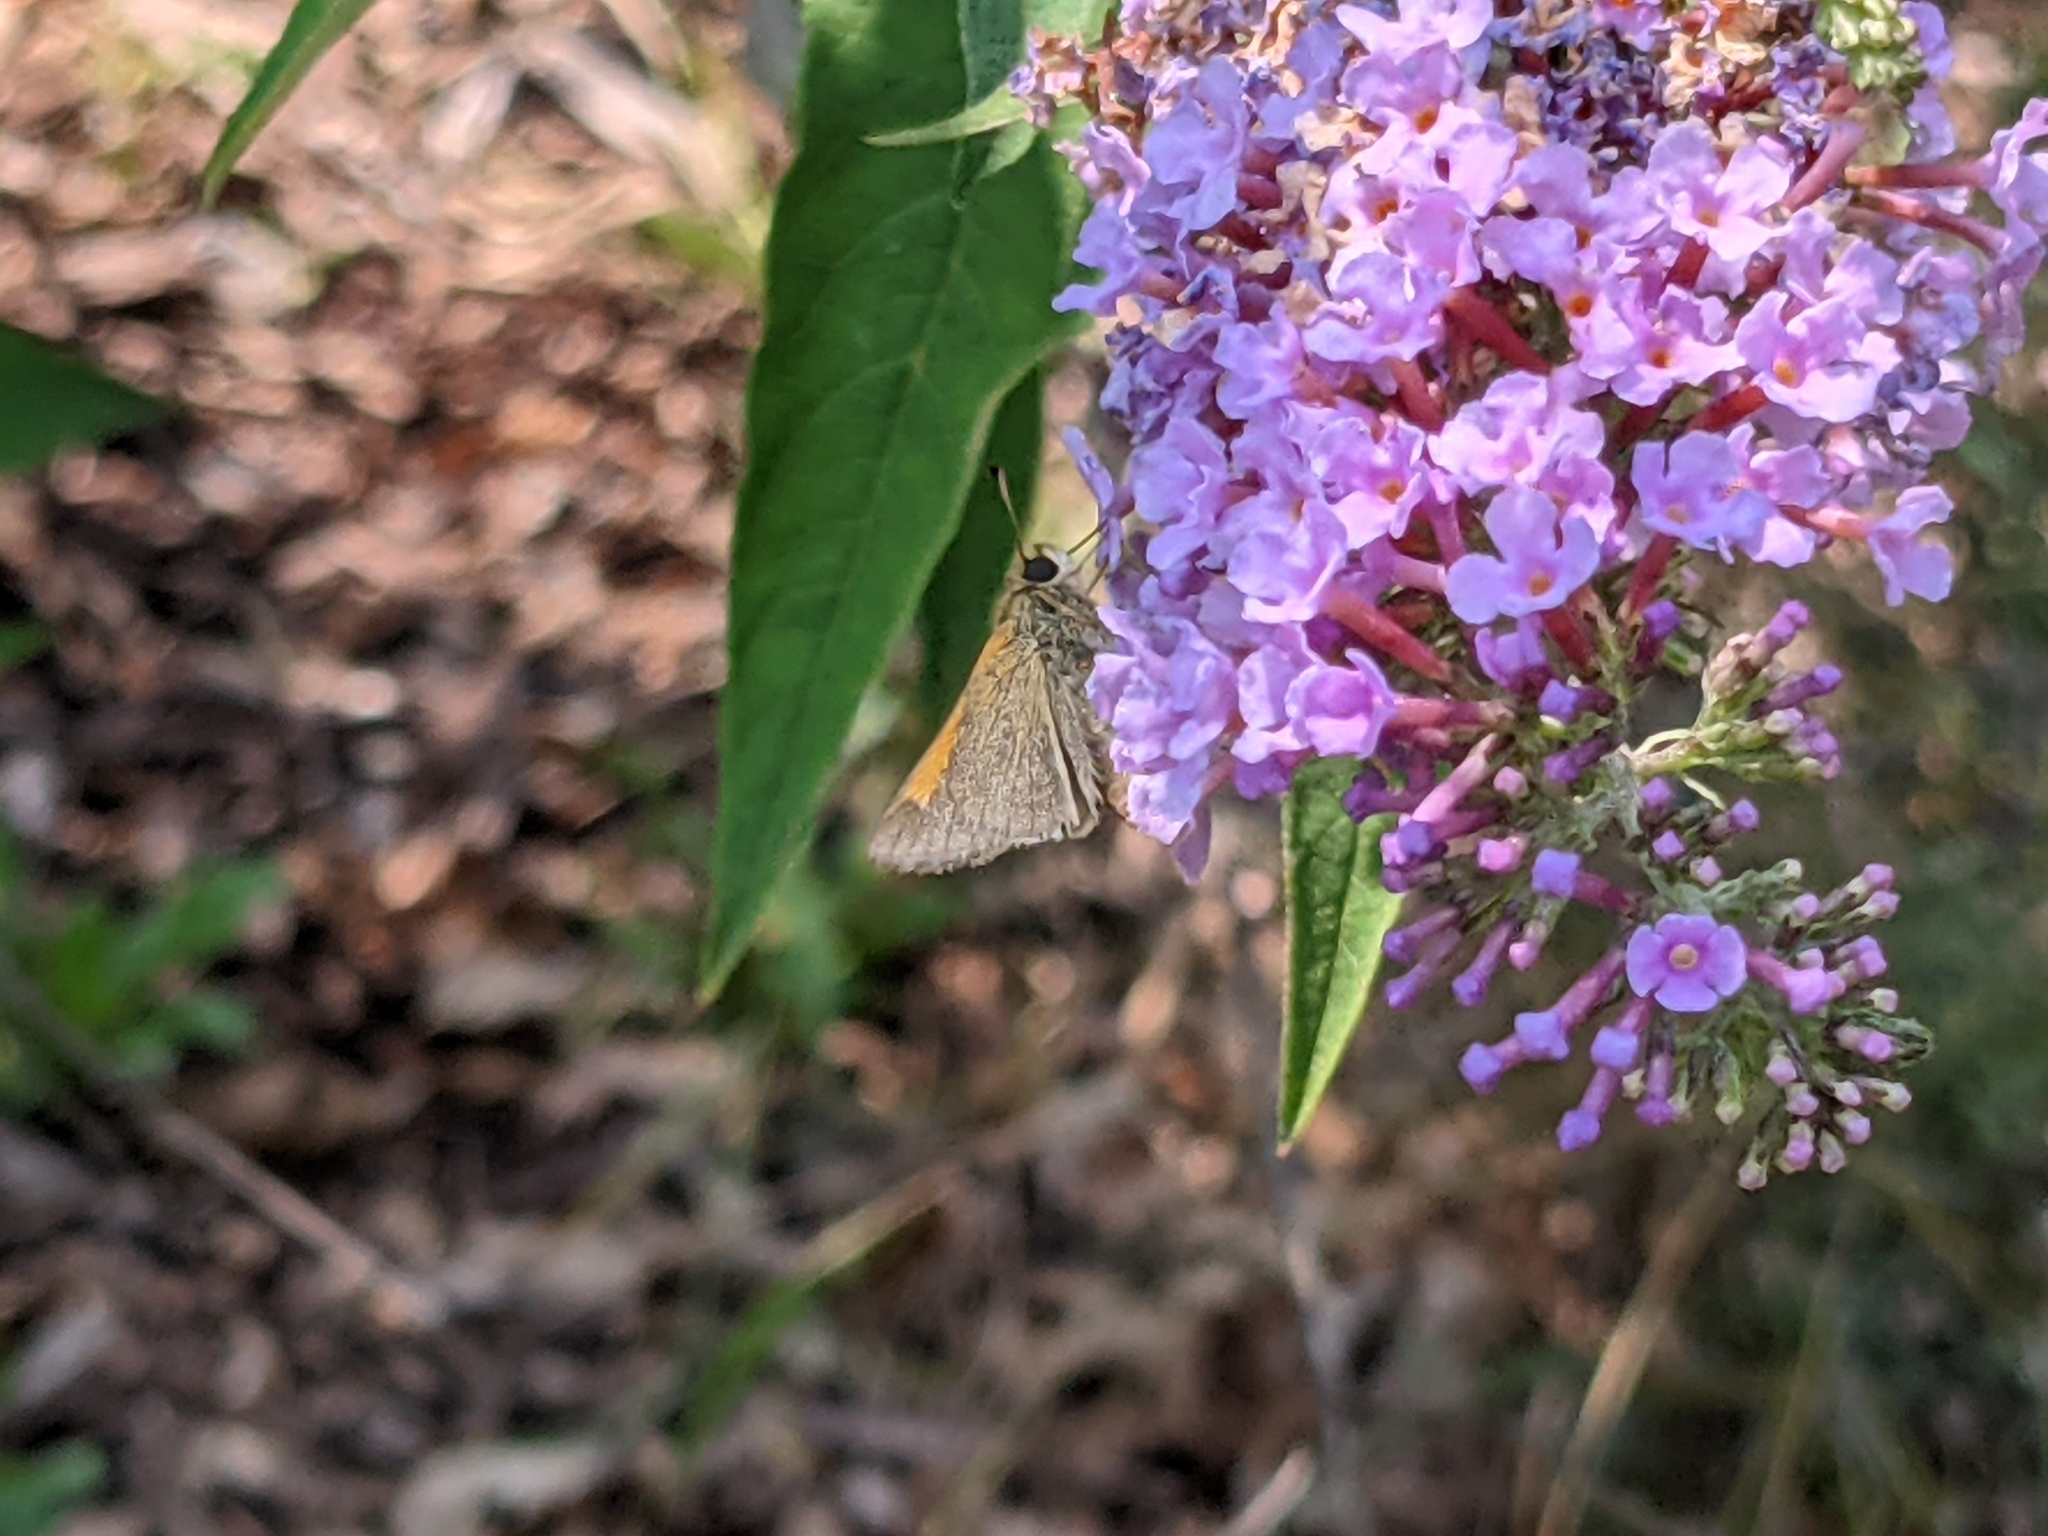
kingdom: Animalia
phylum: Arthropoda
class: Insecta
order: Lepidoptera
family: Hesperiidae
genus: Polites
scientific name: Polites themistocles
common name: Tawny-edged skipper
